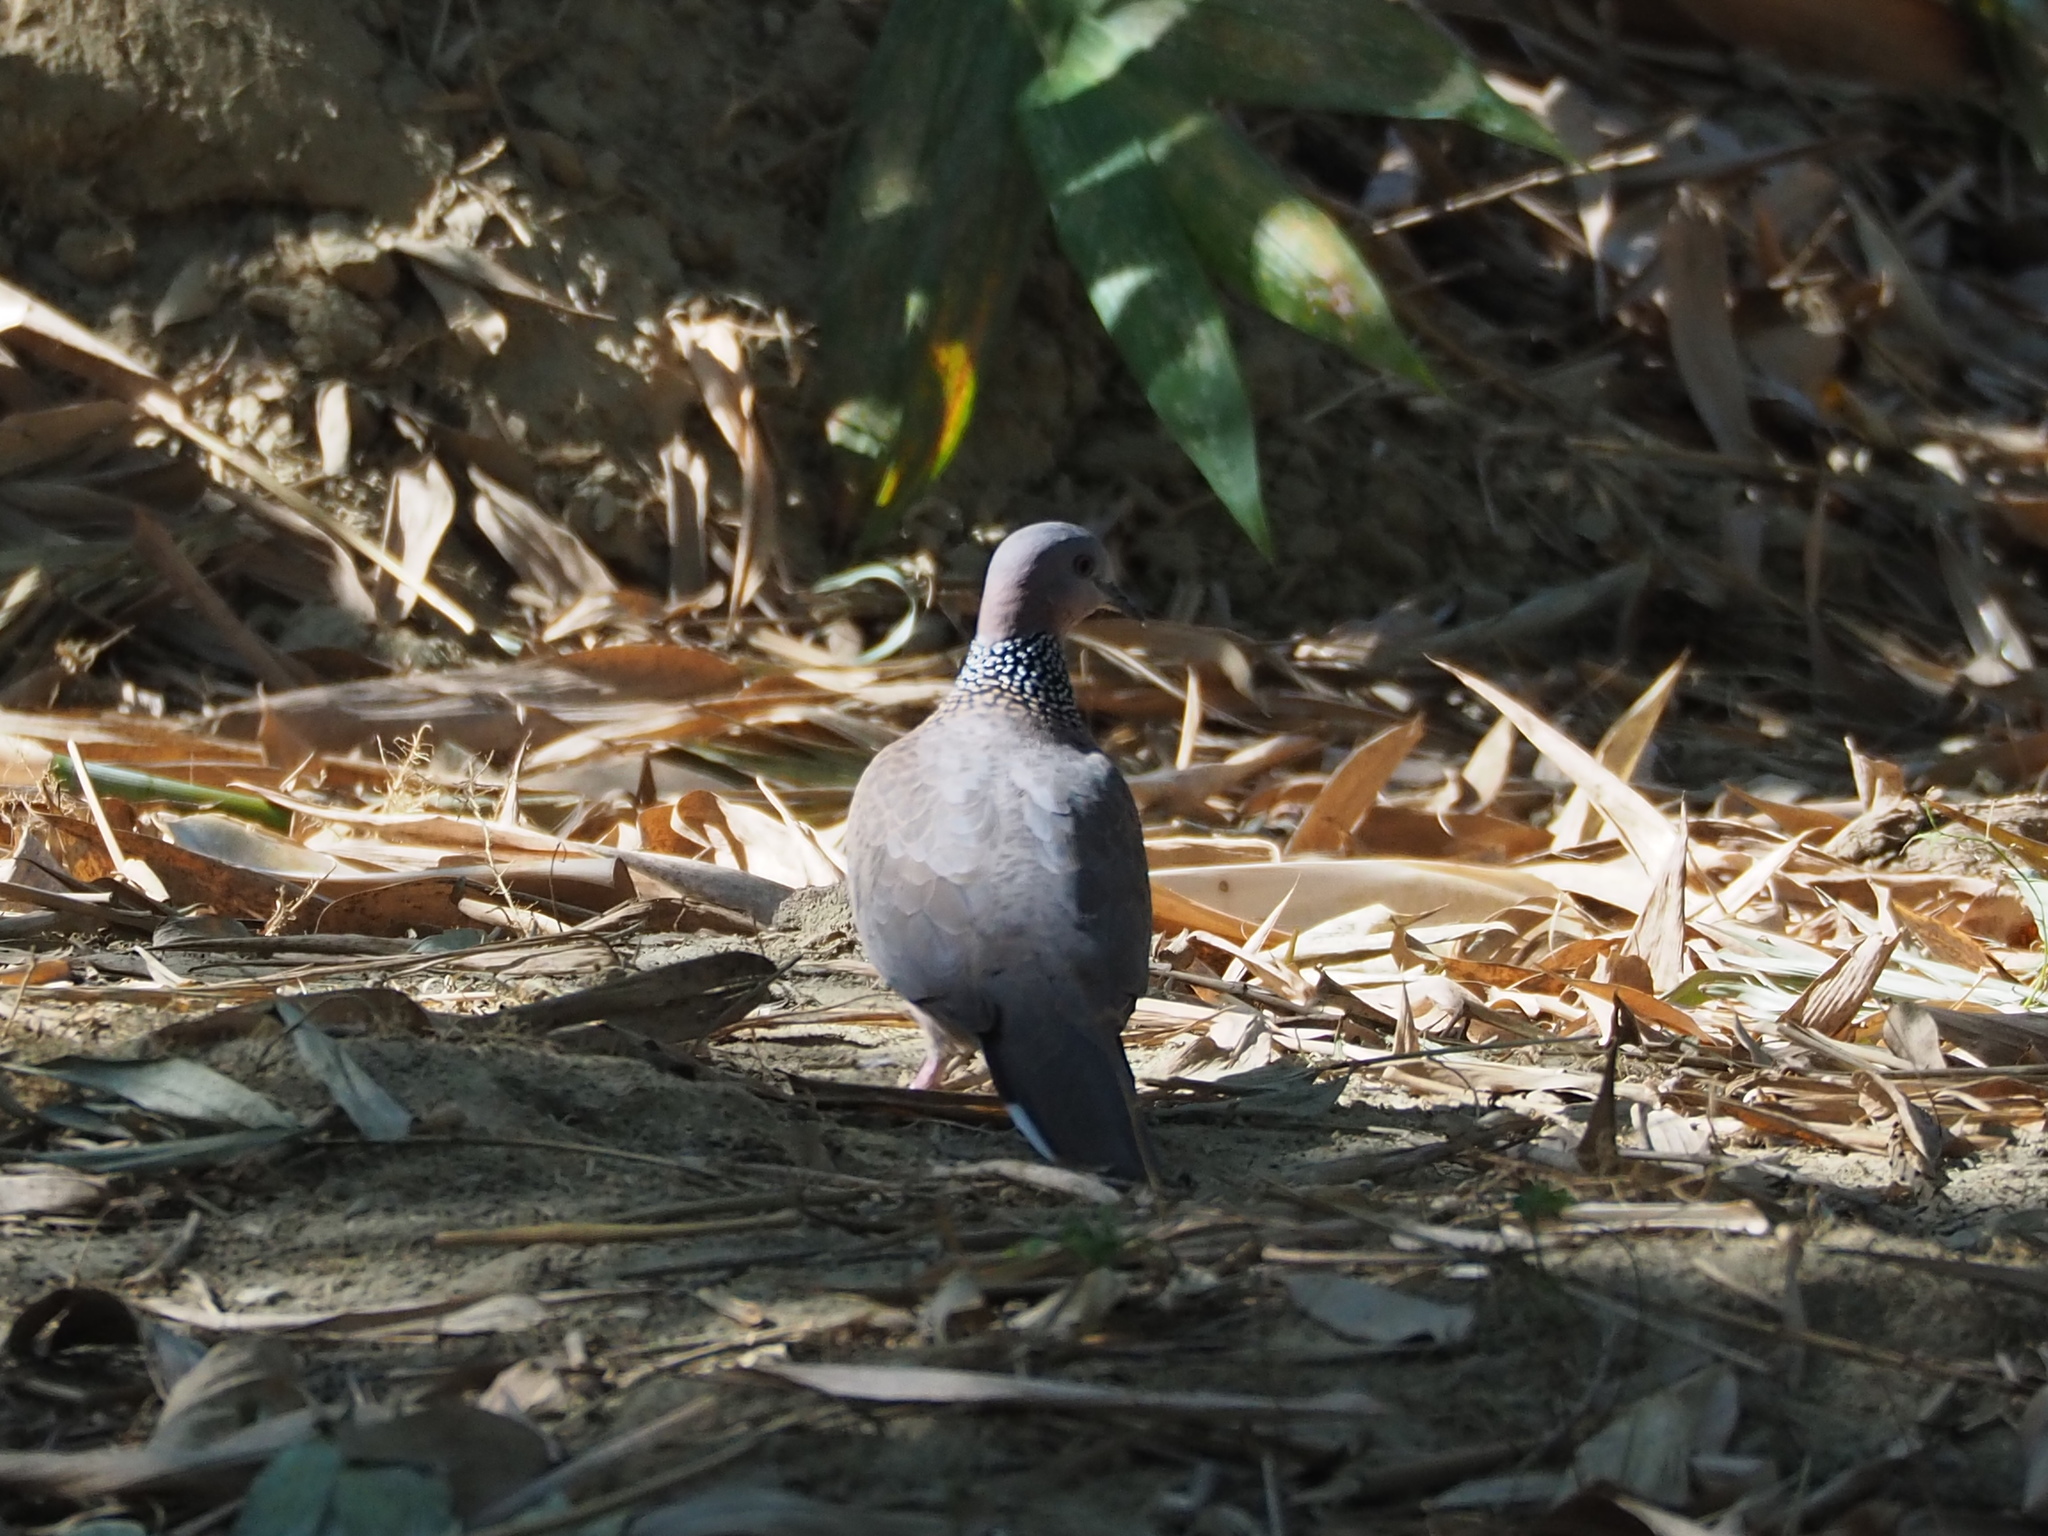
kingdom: Animalia
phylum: Chordata
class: Aves
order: Columbiformes
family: Columbidae
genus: Spilopelia
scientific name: Spilopelia chinensis
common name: Spotted dove
